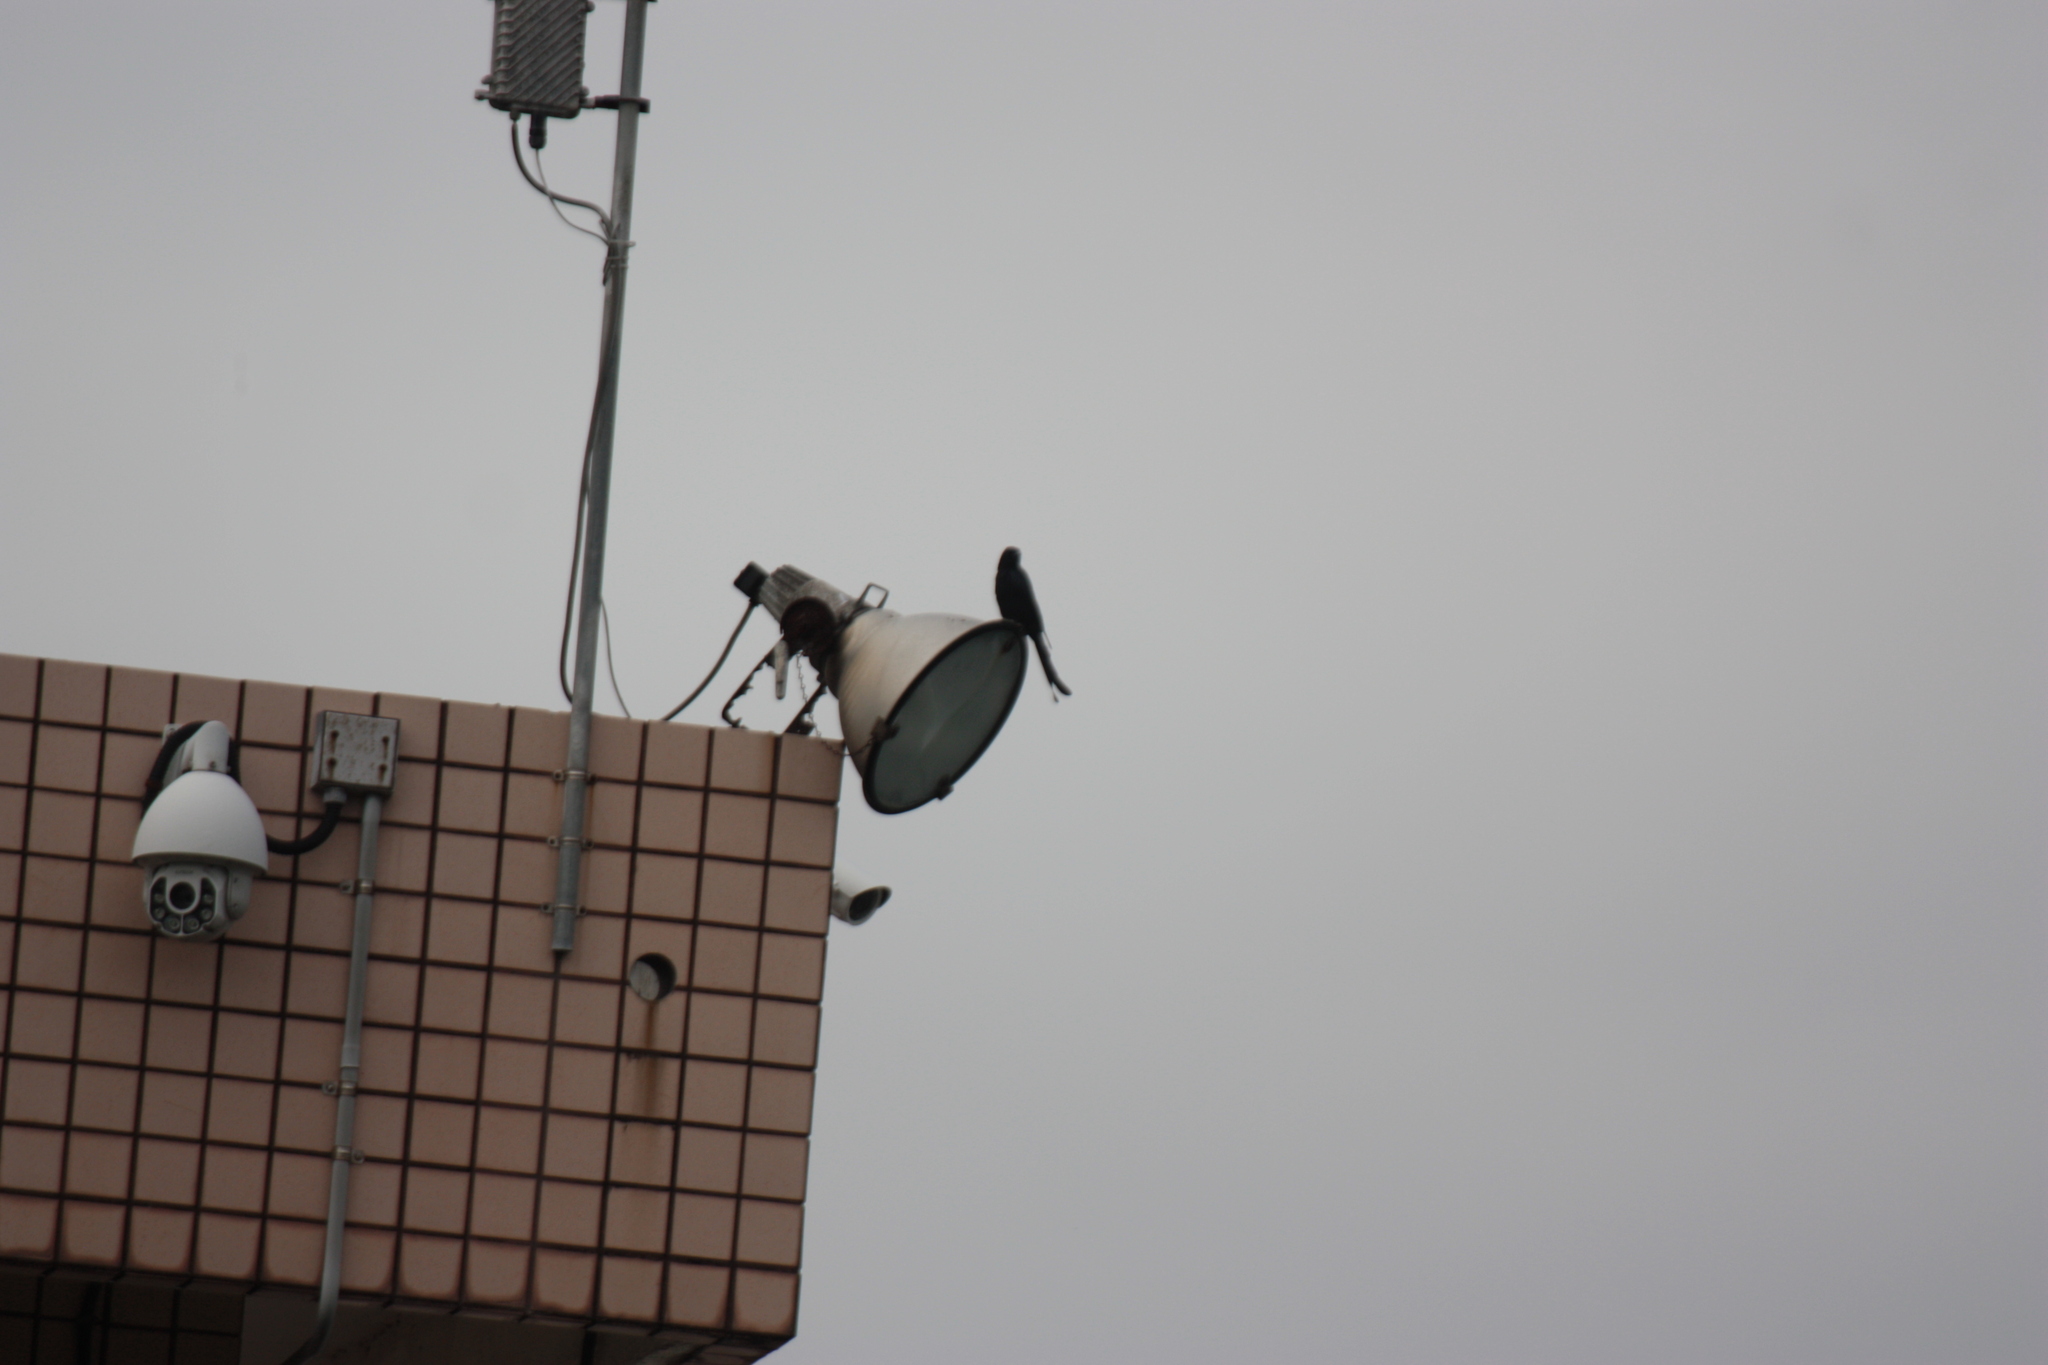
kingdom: Animalia
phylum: Chordata
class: Aves
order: Passeriformes
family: Dicruridae
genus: Dicrurus
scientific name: Dicrurus macrocercus
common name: Black drongo
